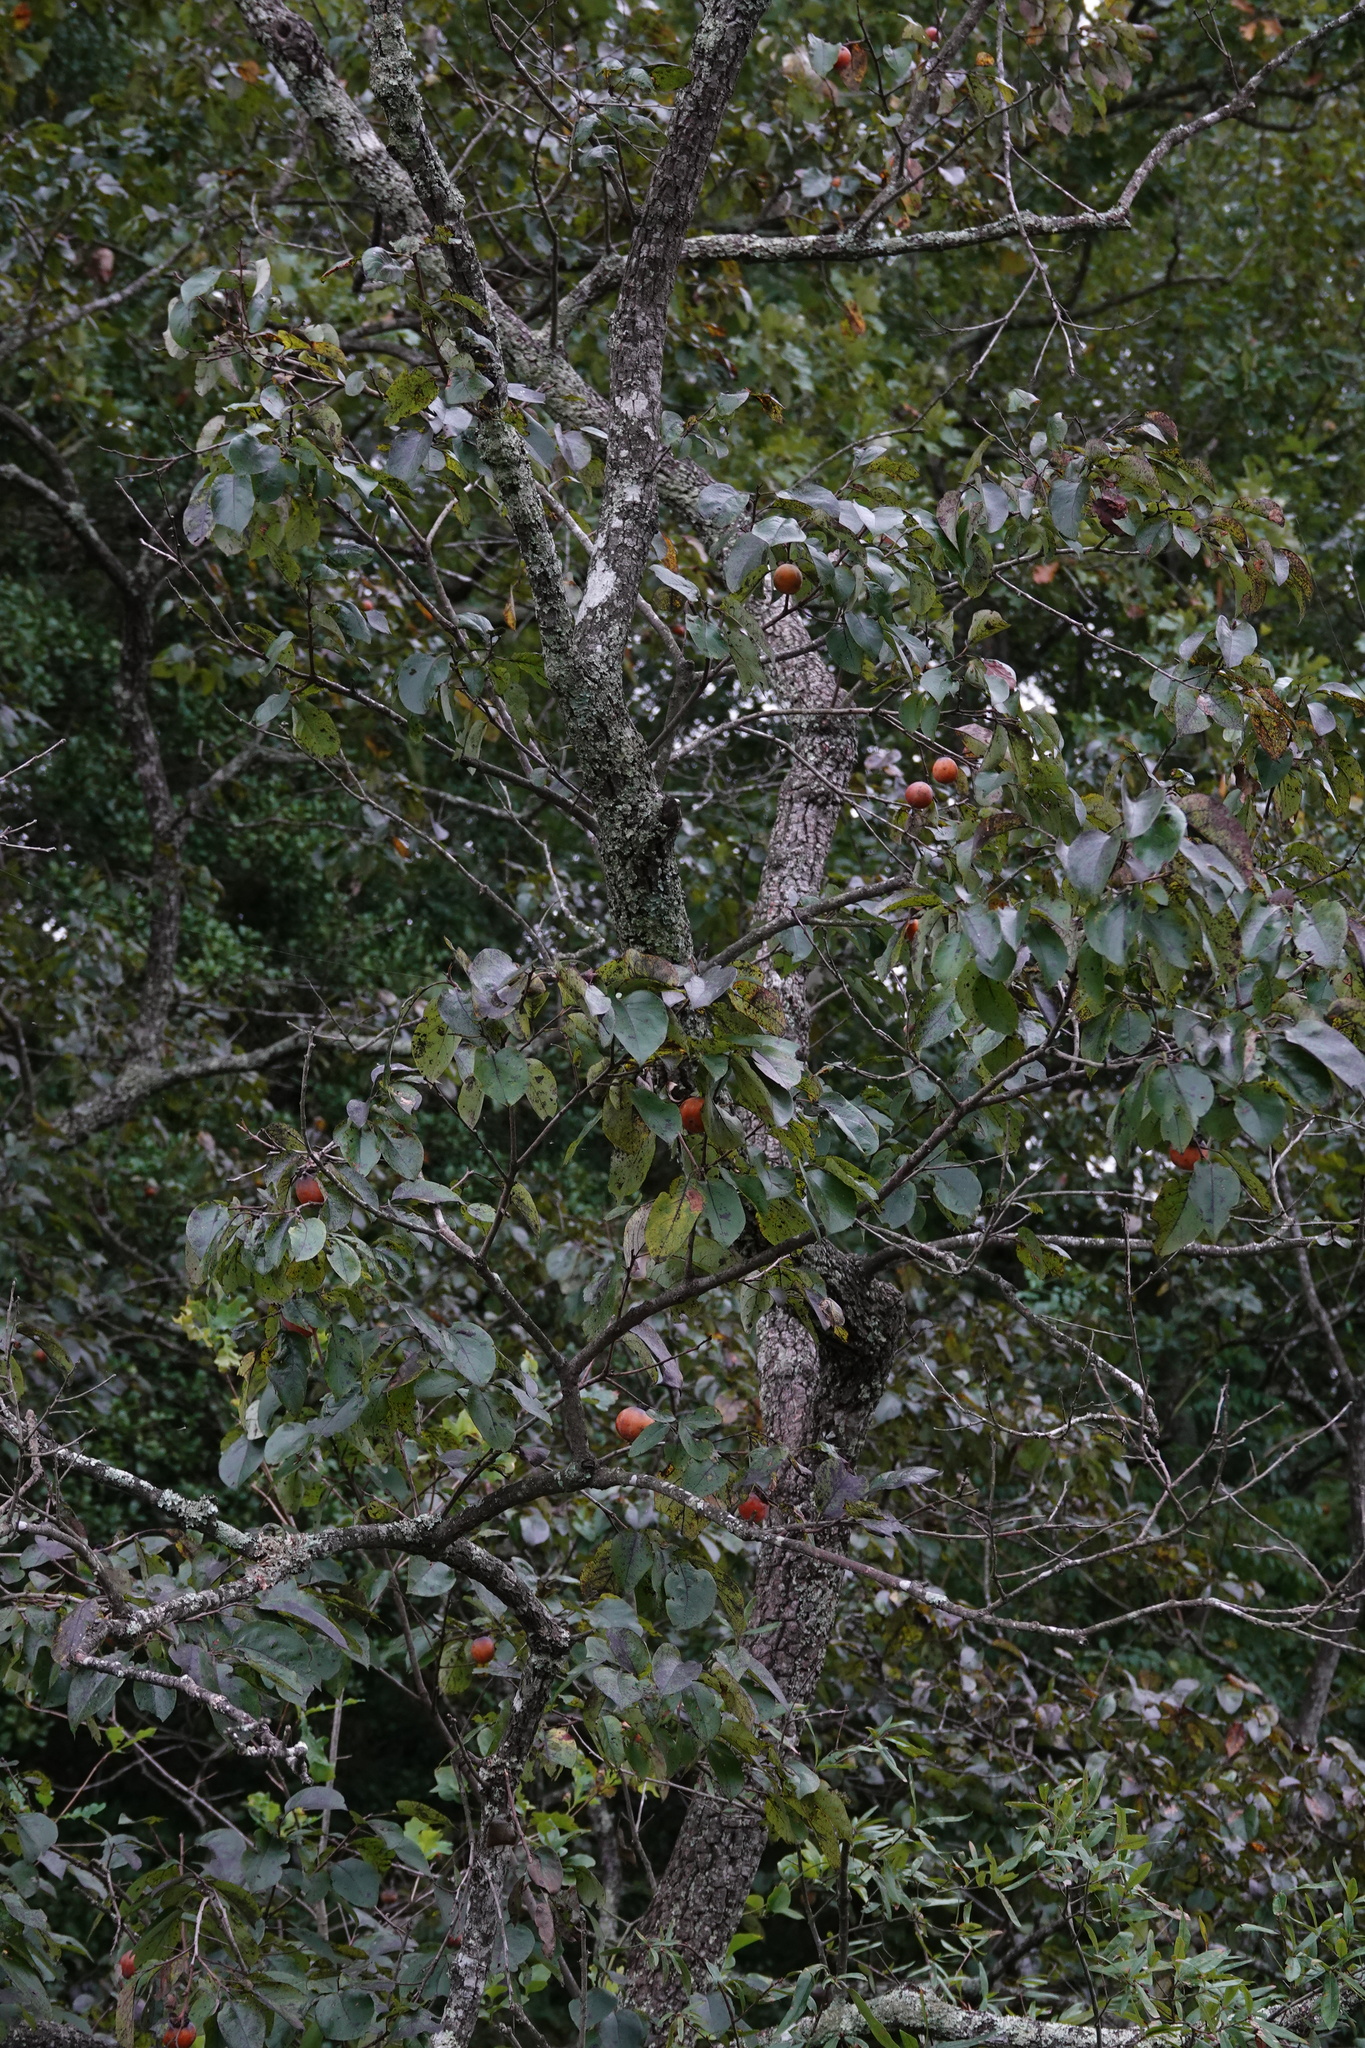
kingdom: Plantae
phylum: Tracheophyta
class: Magnoliopsida
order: Ericales
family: Ebenaceae
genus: Diospyros
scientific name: Diospyros virginiana
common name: Persimmon
